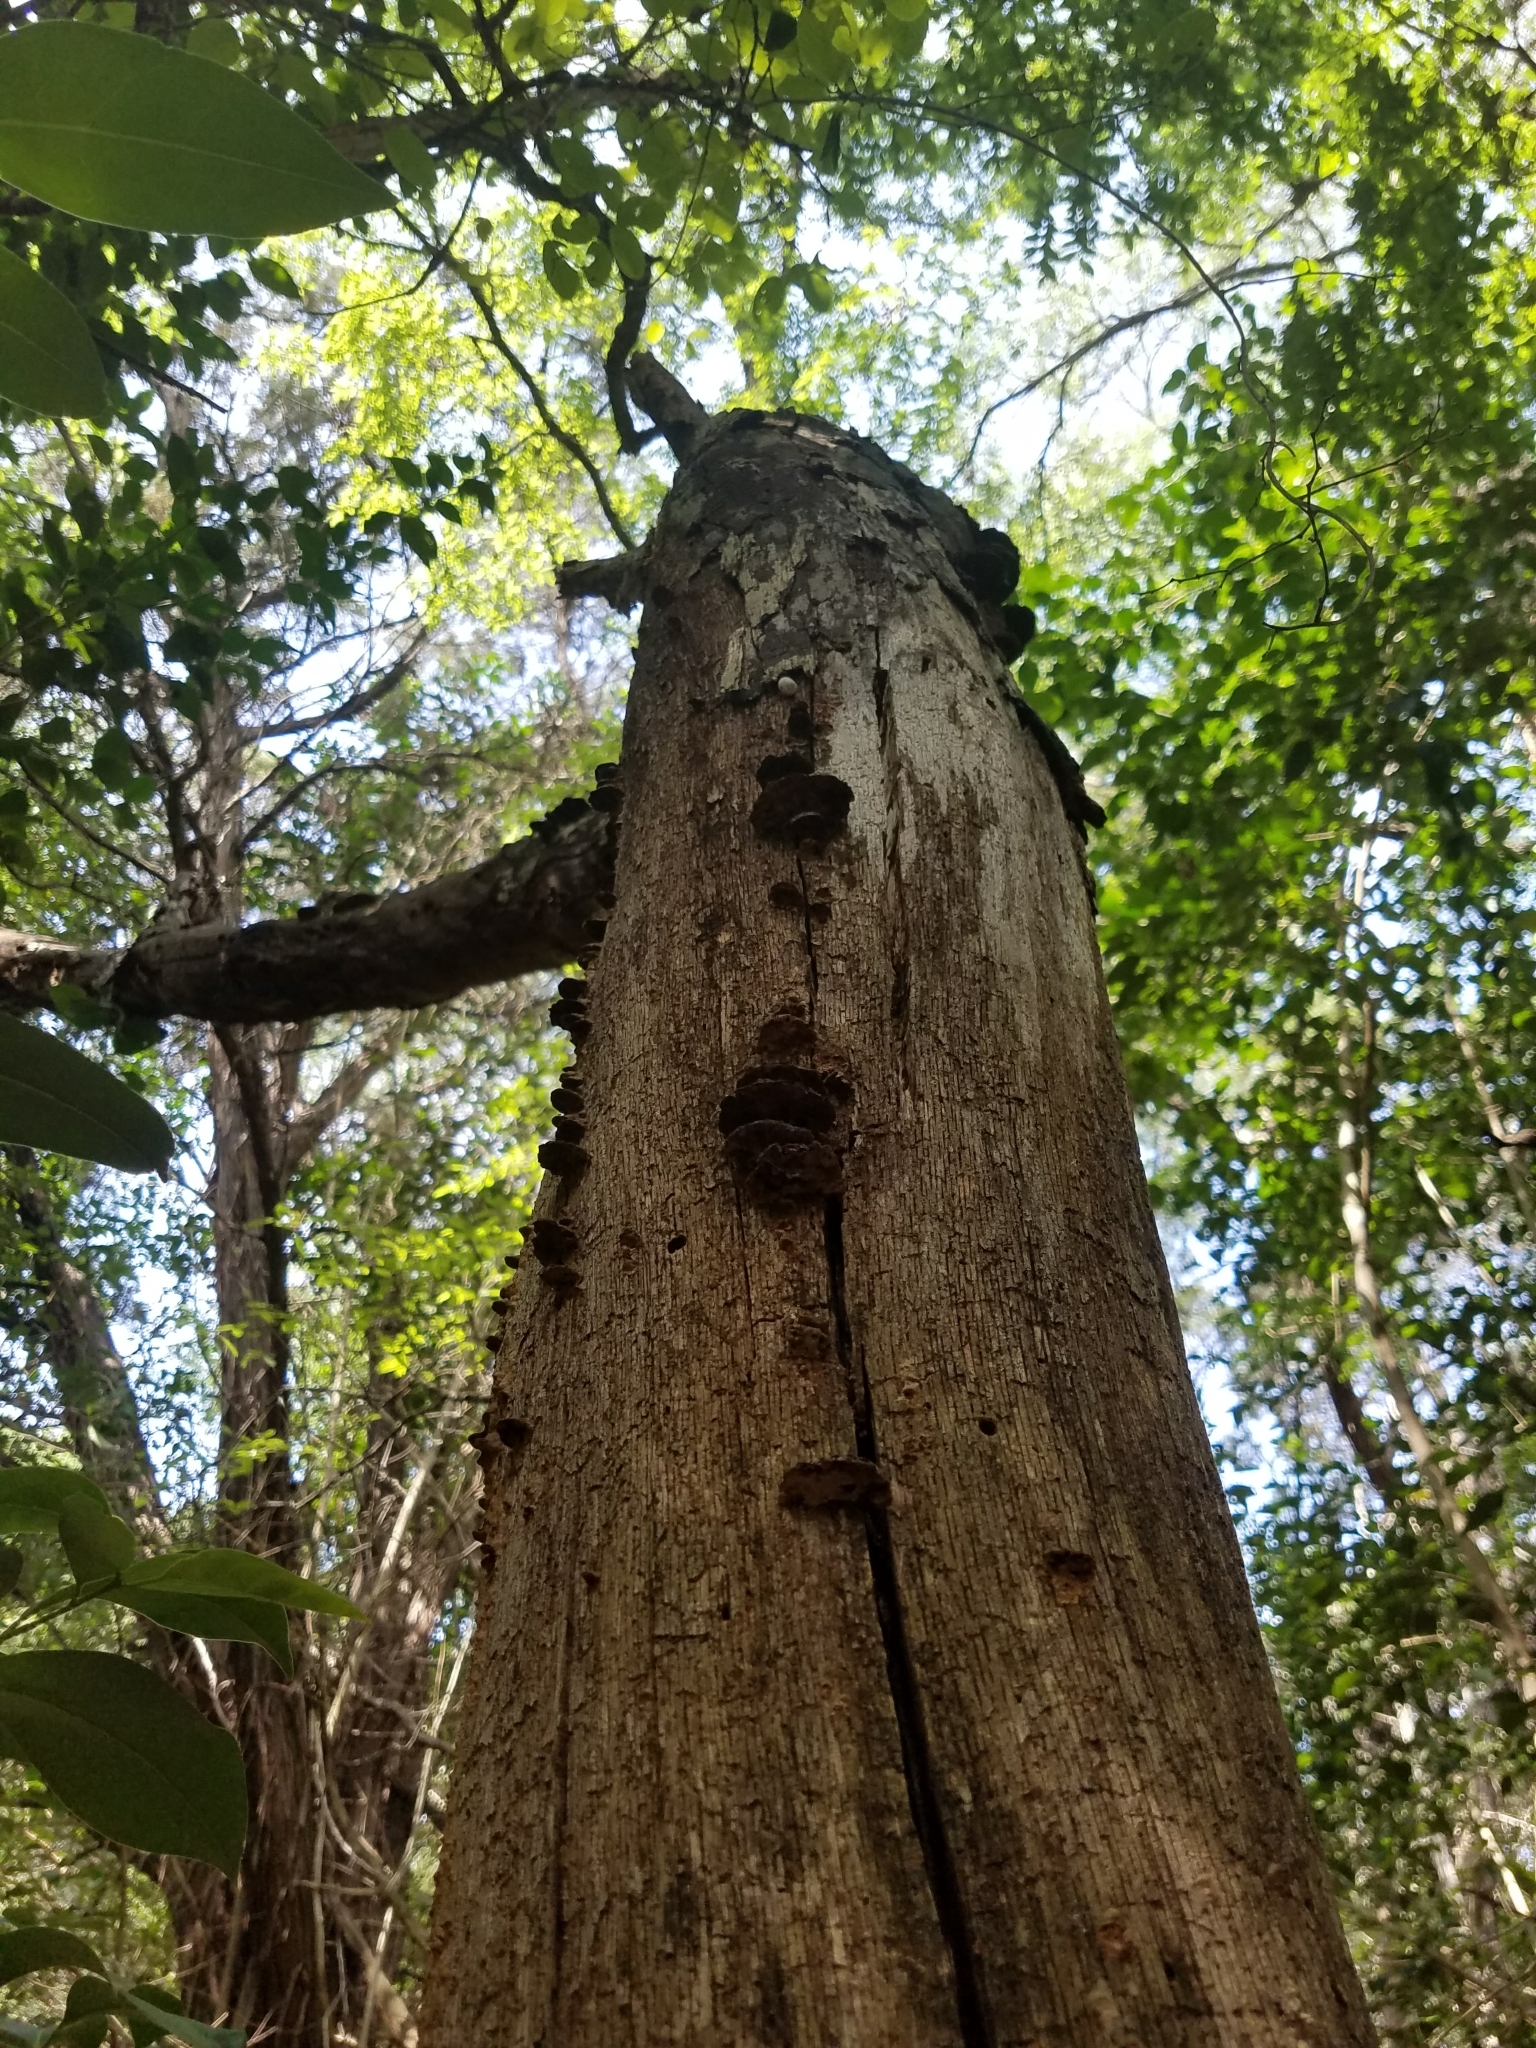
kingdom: Fungi
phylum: Basidiomycota
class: Agaricomycetes
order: Polyporales
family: Cerrenaceae
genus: Cerrena
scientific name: Cerrena hydnoides
